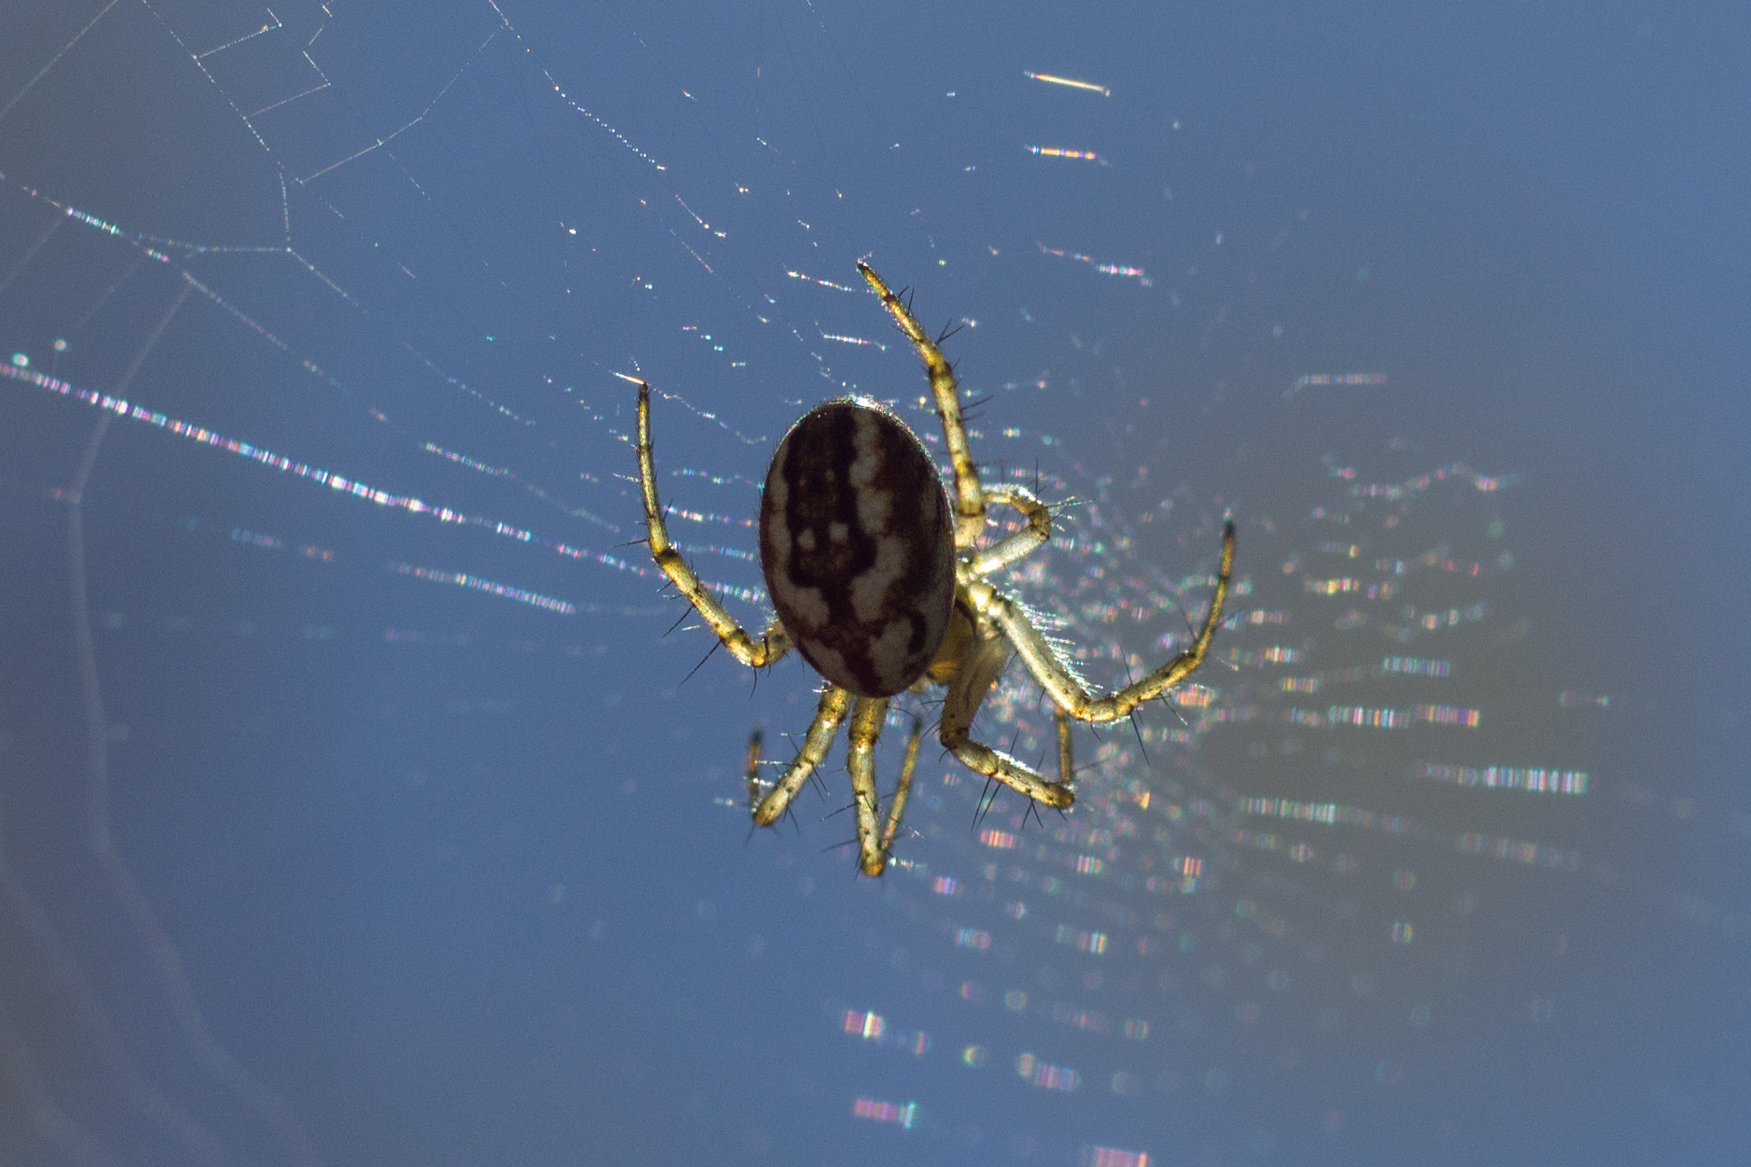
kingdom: Animalia
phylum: Arthropoda
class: Arachnida
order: Araneae
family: Araneidae
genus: Mangora
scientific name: Mangora acalypha
